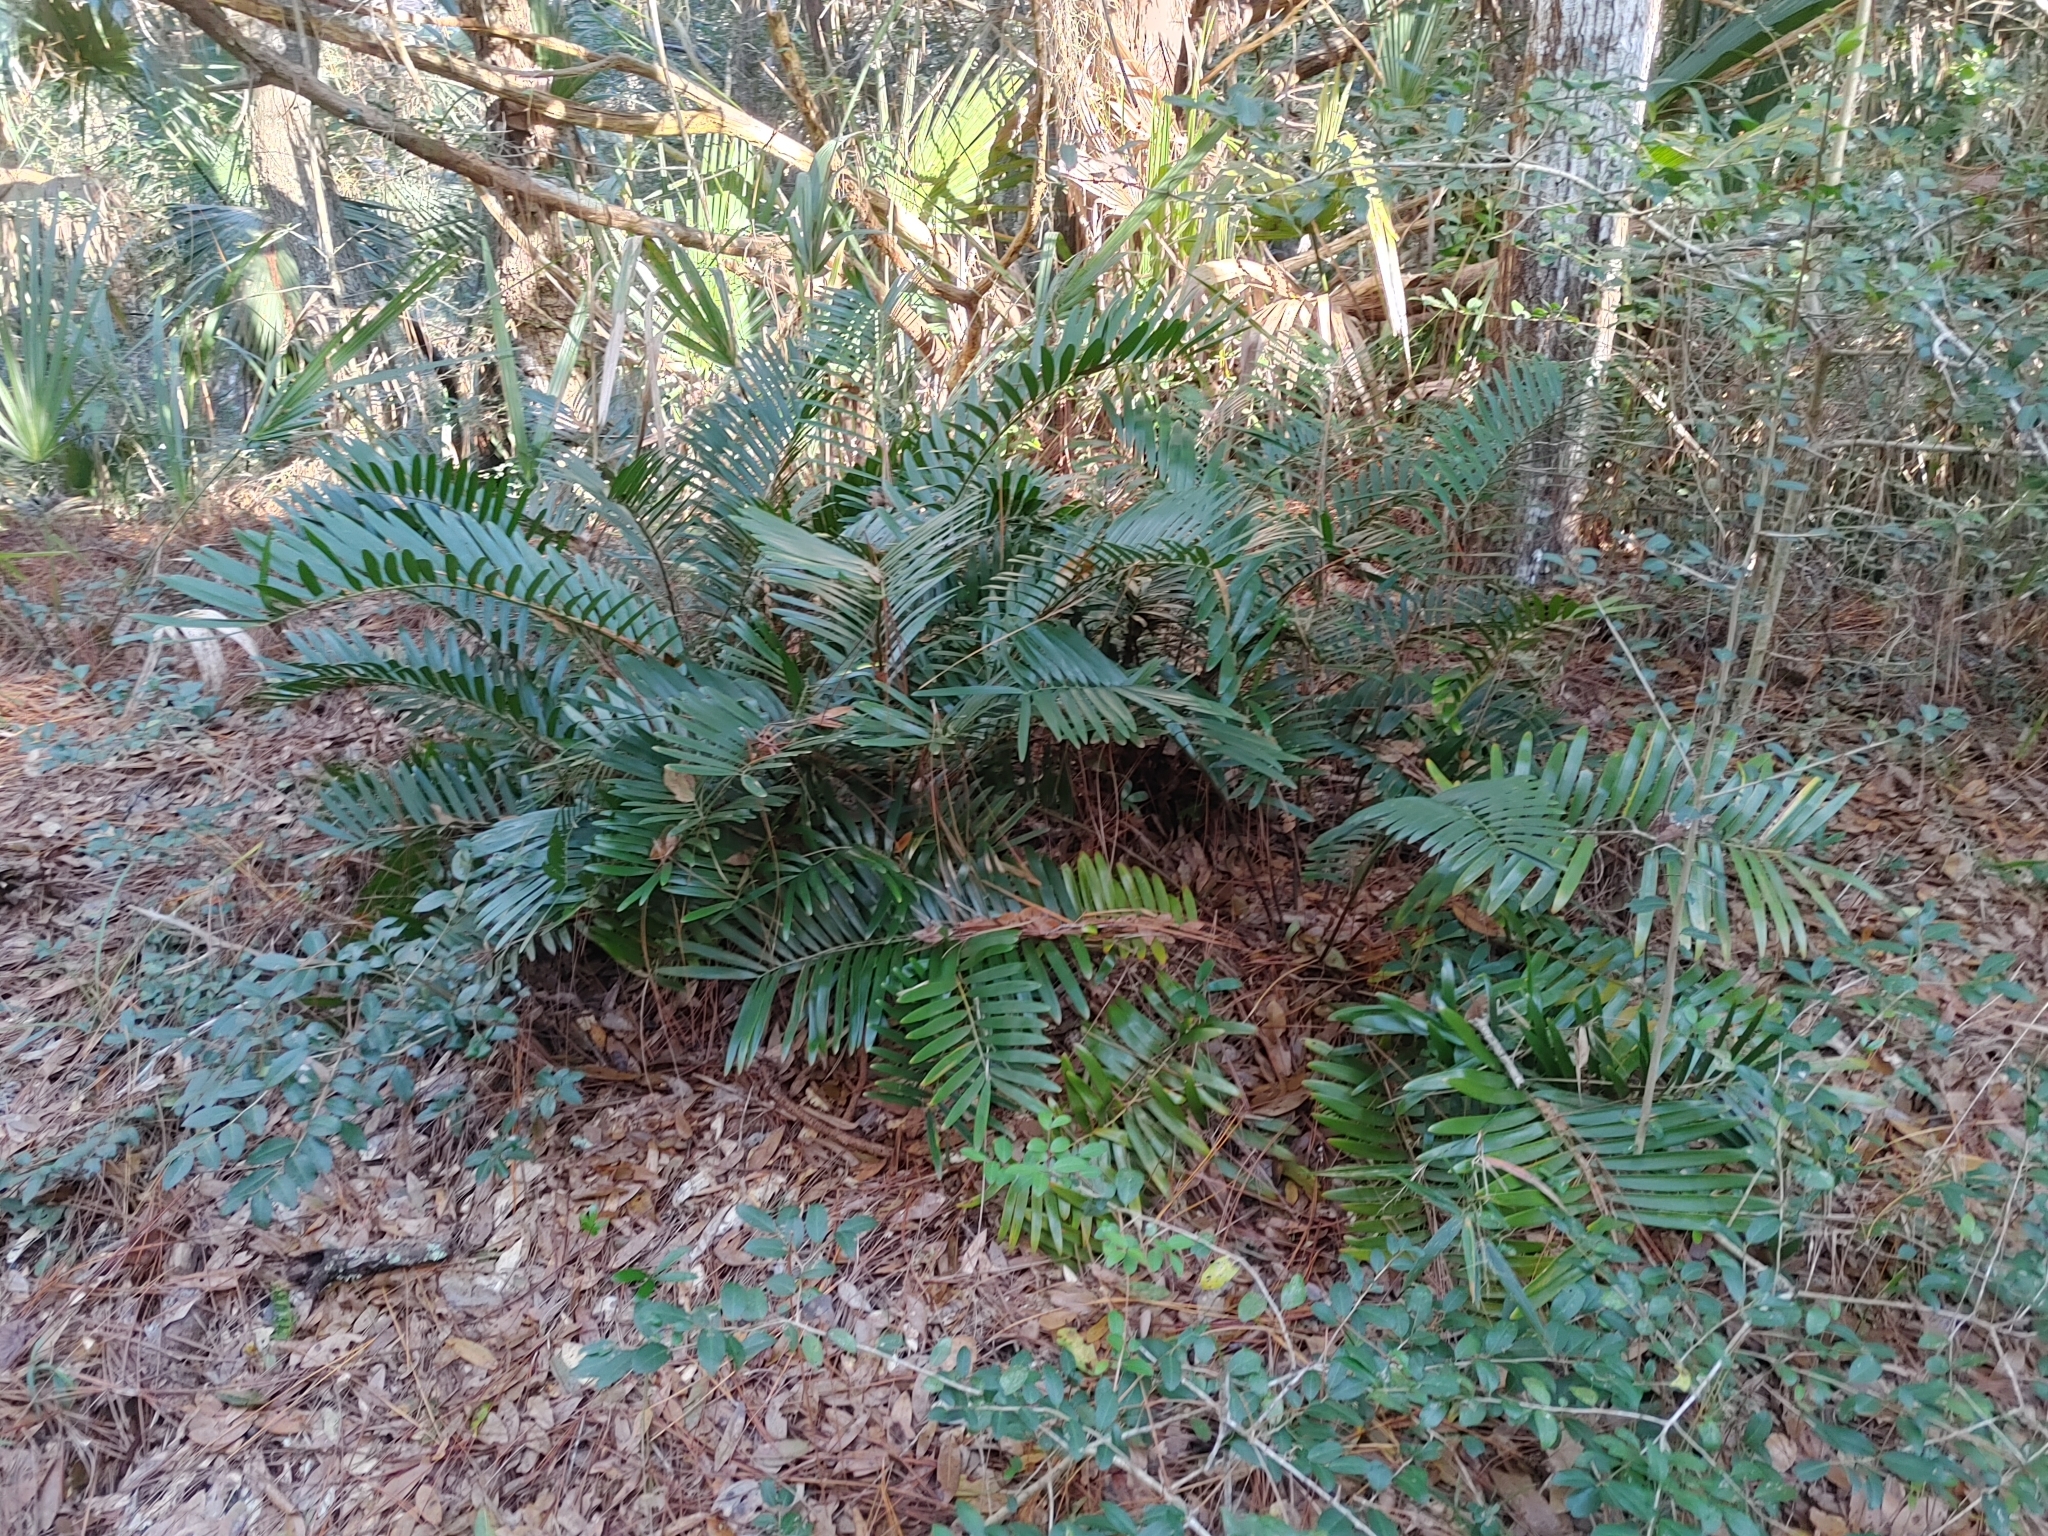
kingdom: Plantae
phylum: Tracheophyta
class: Cycadopsida
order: Cycadales
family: Zamiaceae
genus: Zamia
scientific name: Zamia integrifolia
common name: Florida arrowroot
